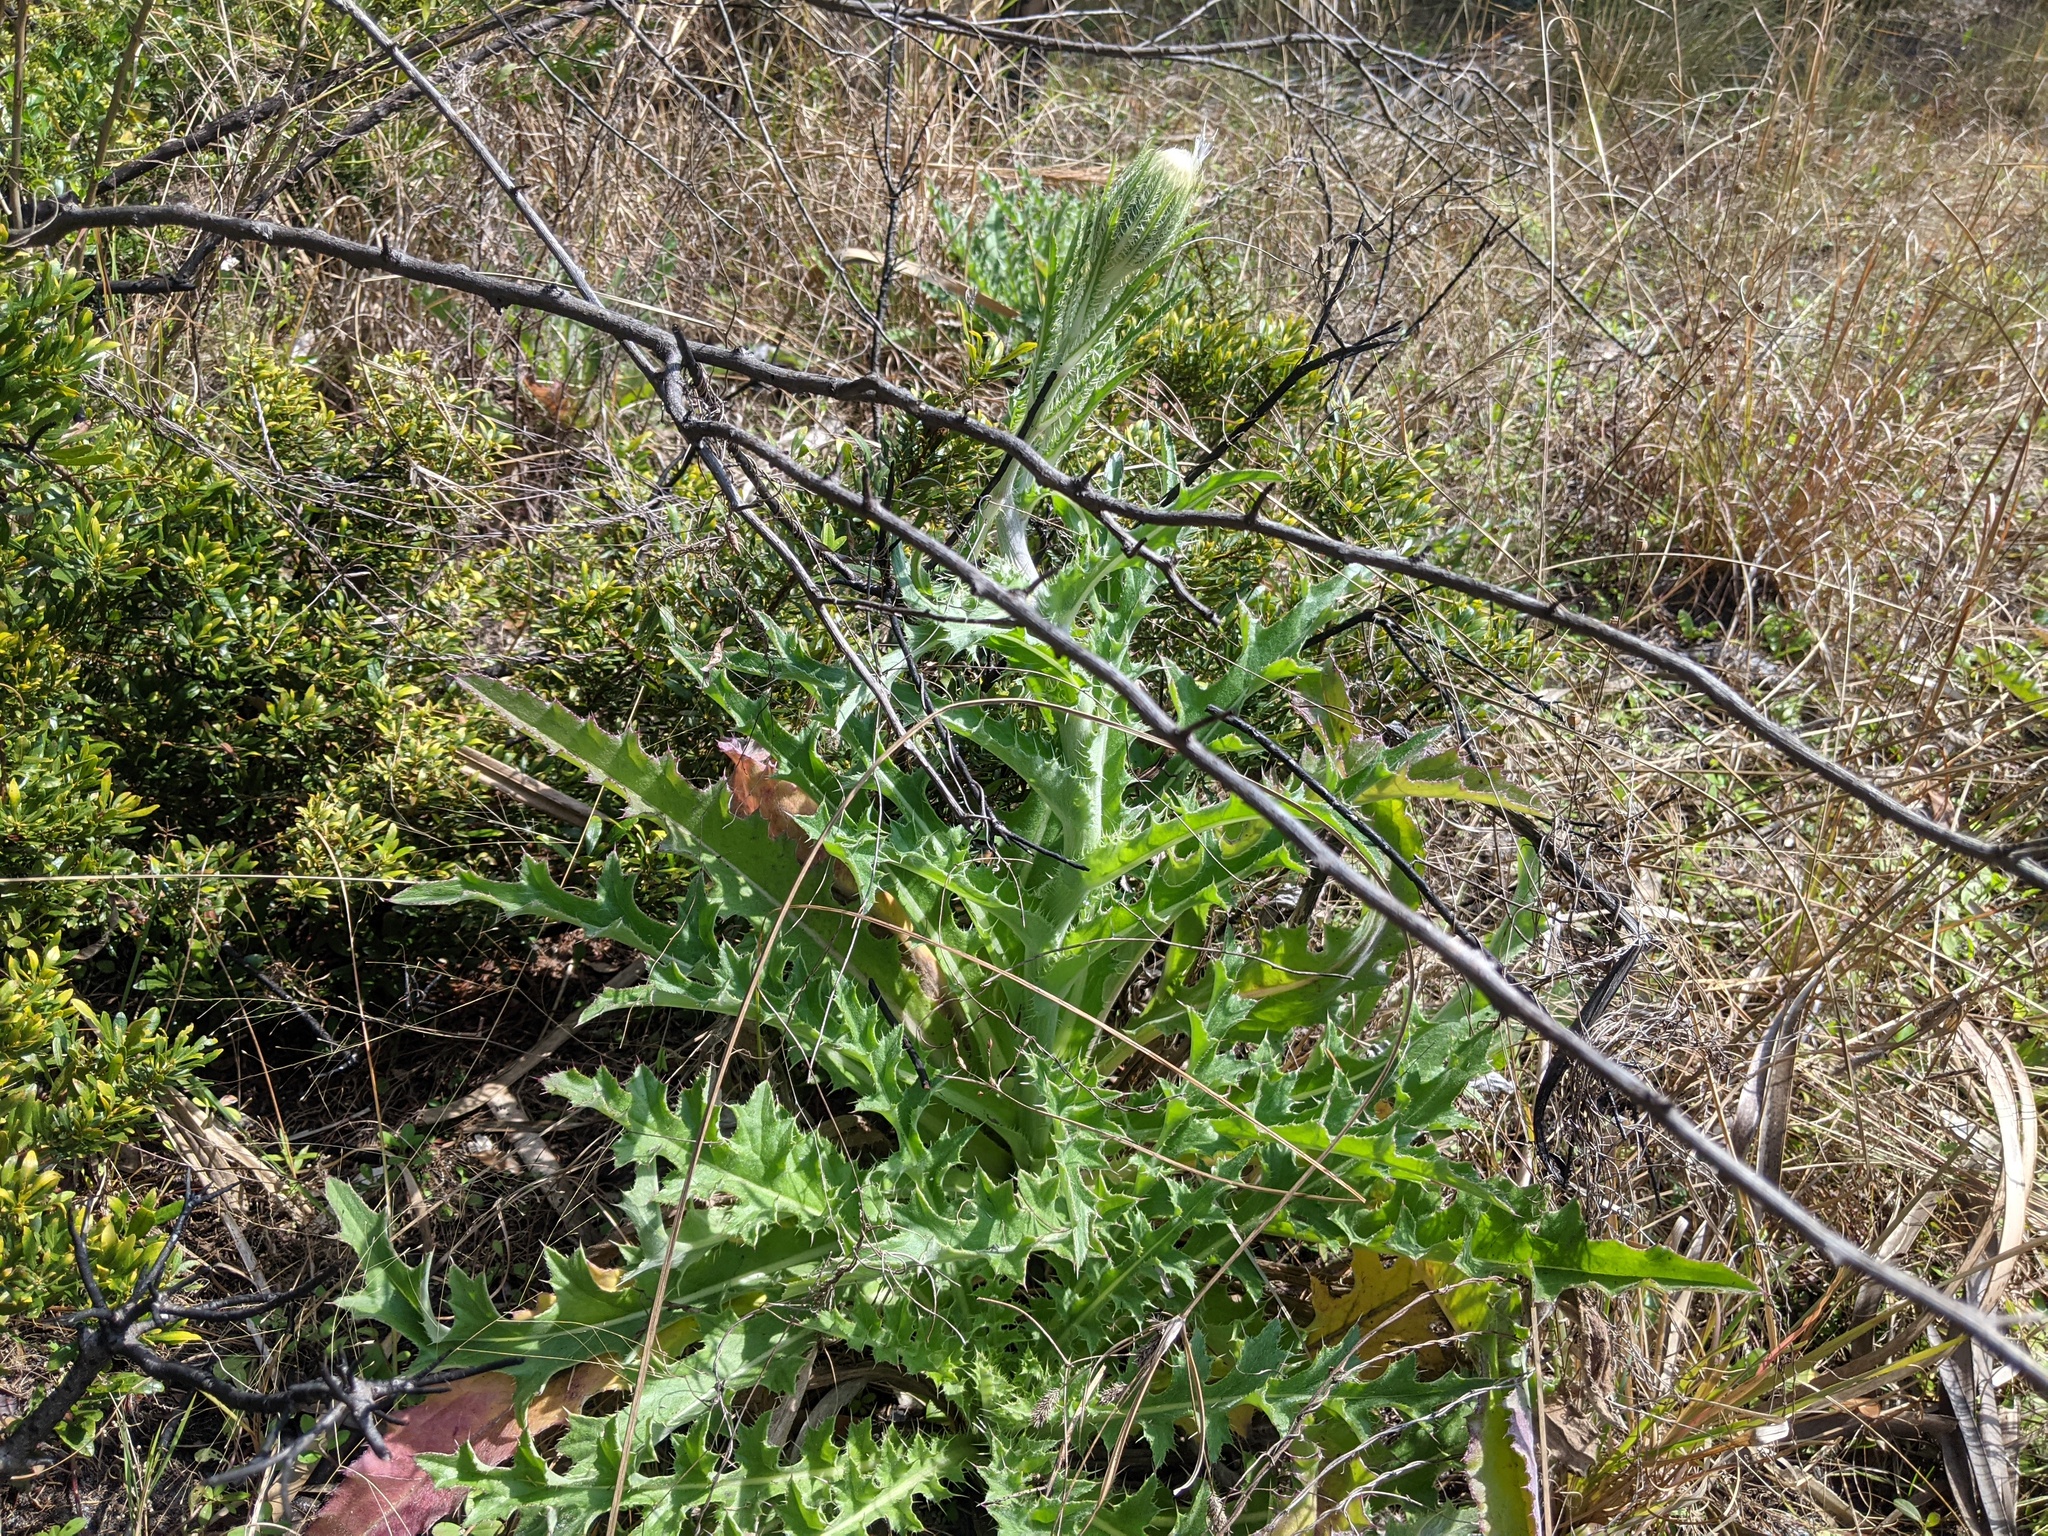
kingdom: Plantae
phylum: Tracheophyta
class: Magnoliopsida
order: Asterales
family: Asteraceae
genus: Cirsium
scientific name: Cirsium horridulum
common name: Bristly thistle
